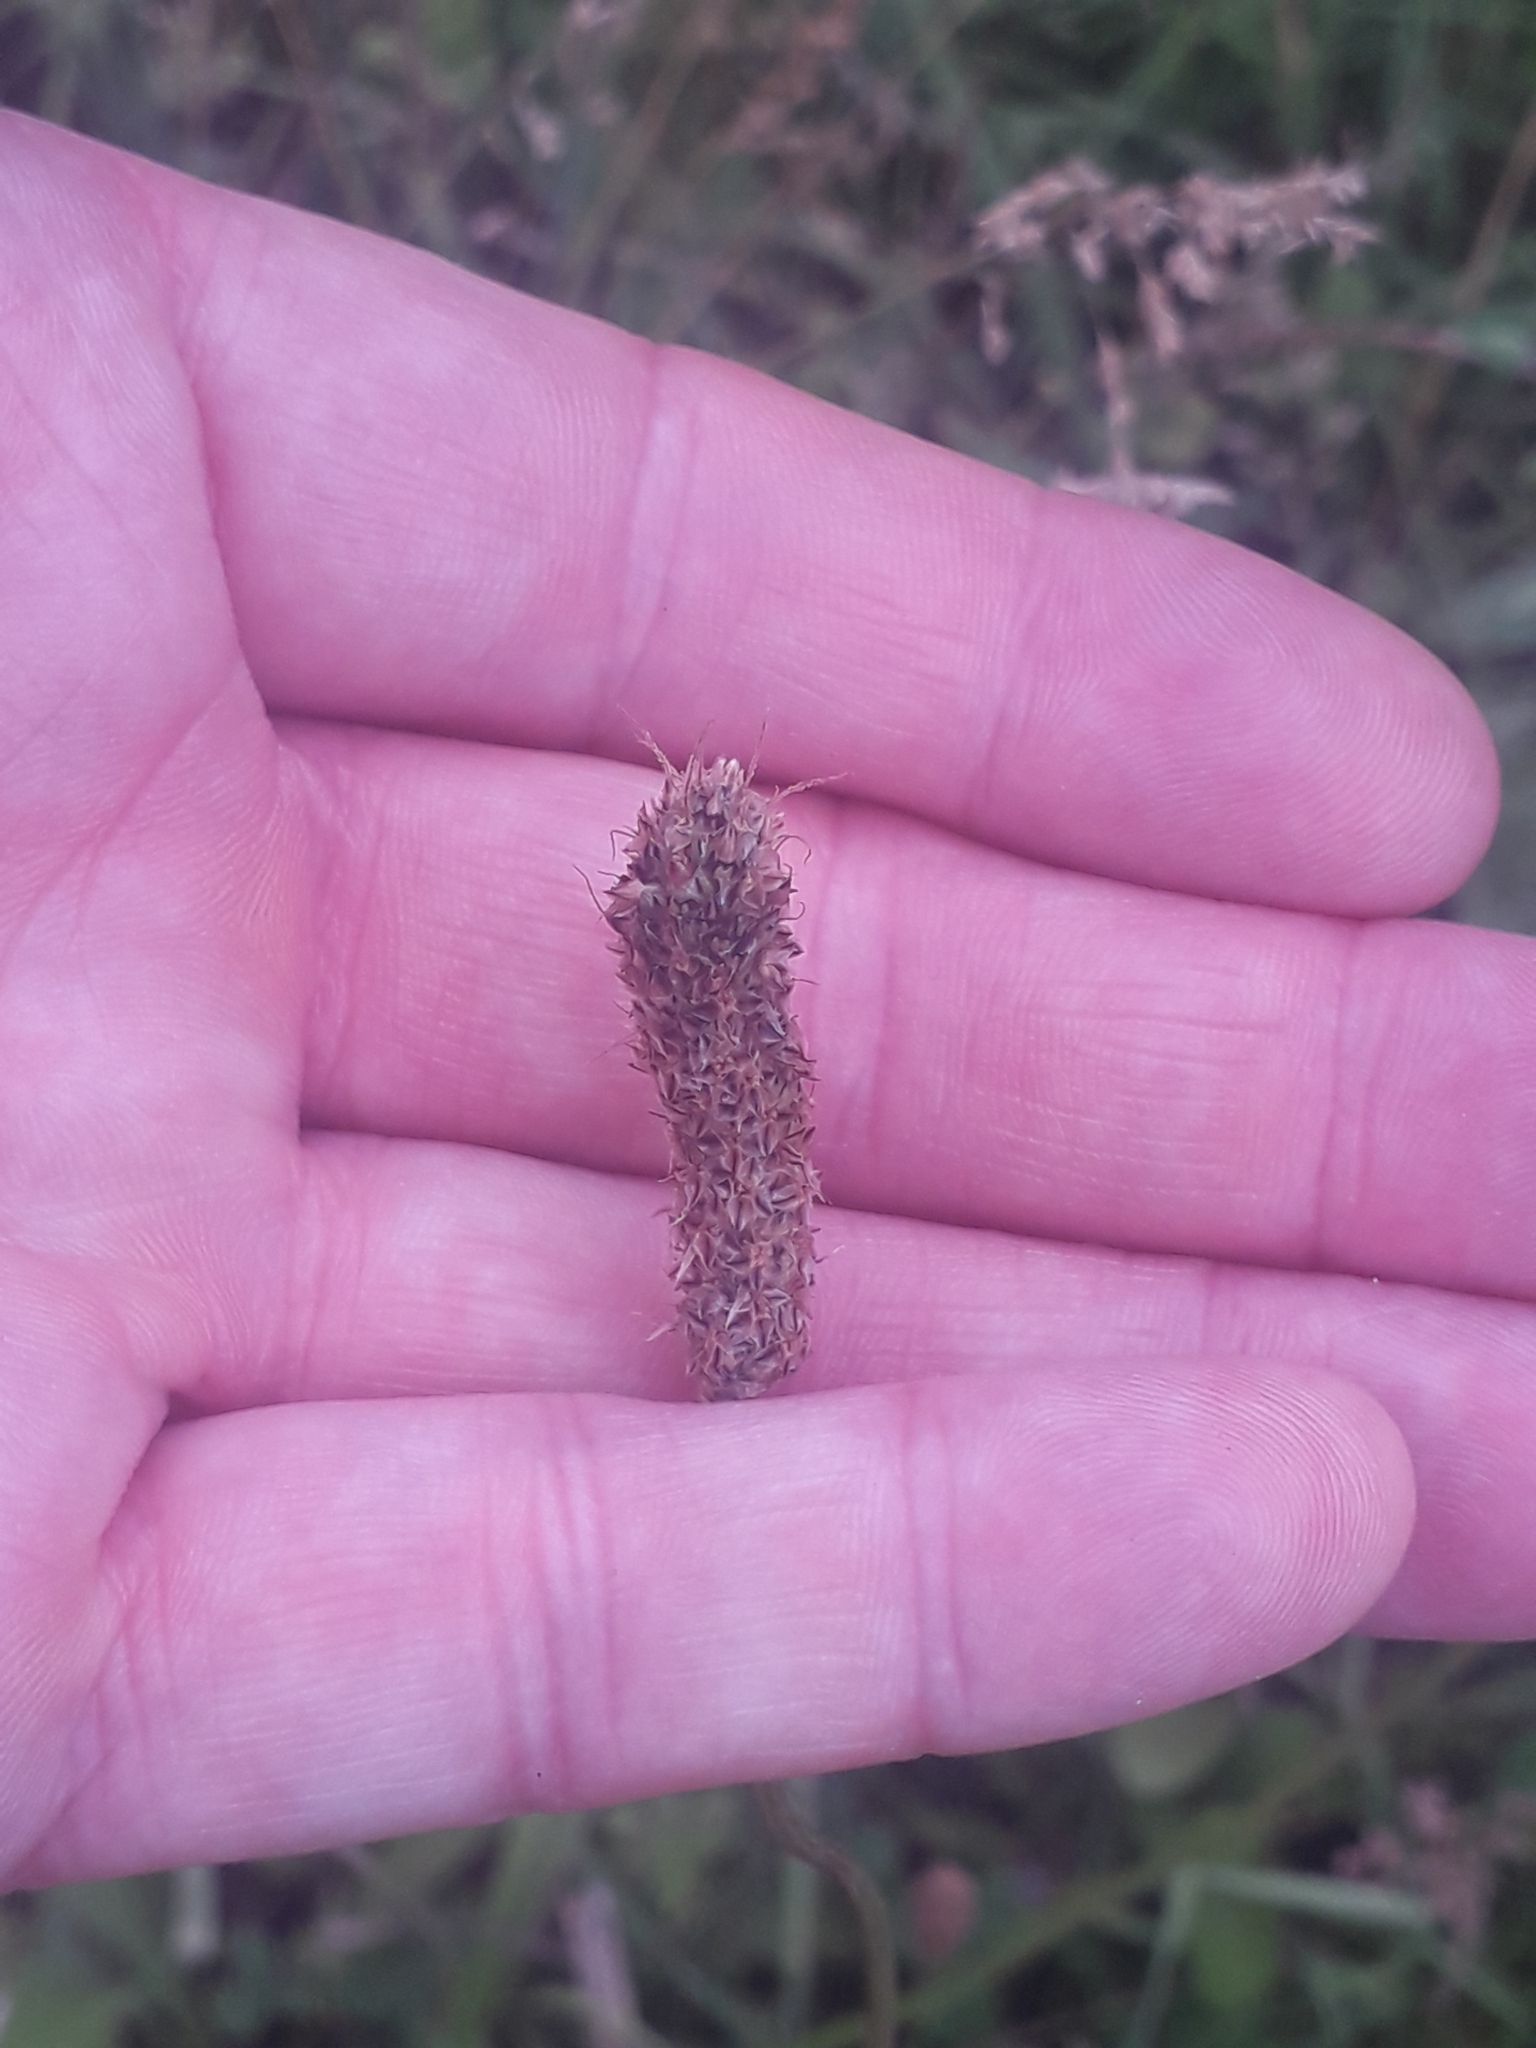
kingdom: Plantae
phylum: Tracheophyta
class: Magnoliopsida
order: Lamiales
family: Plantaginaceae
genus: Plantago
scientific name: Plantago lanceolata
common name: Ribwort plantain
